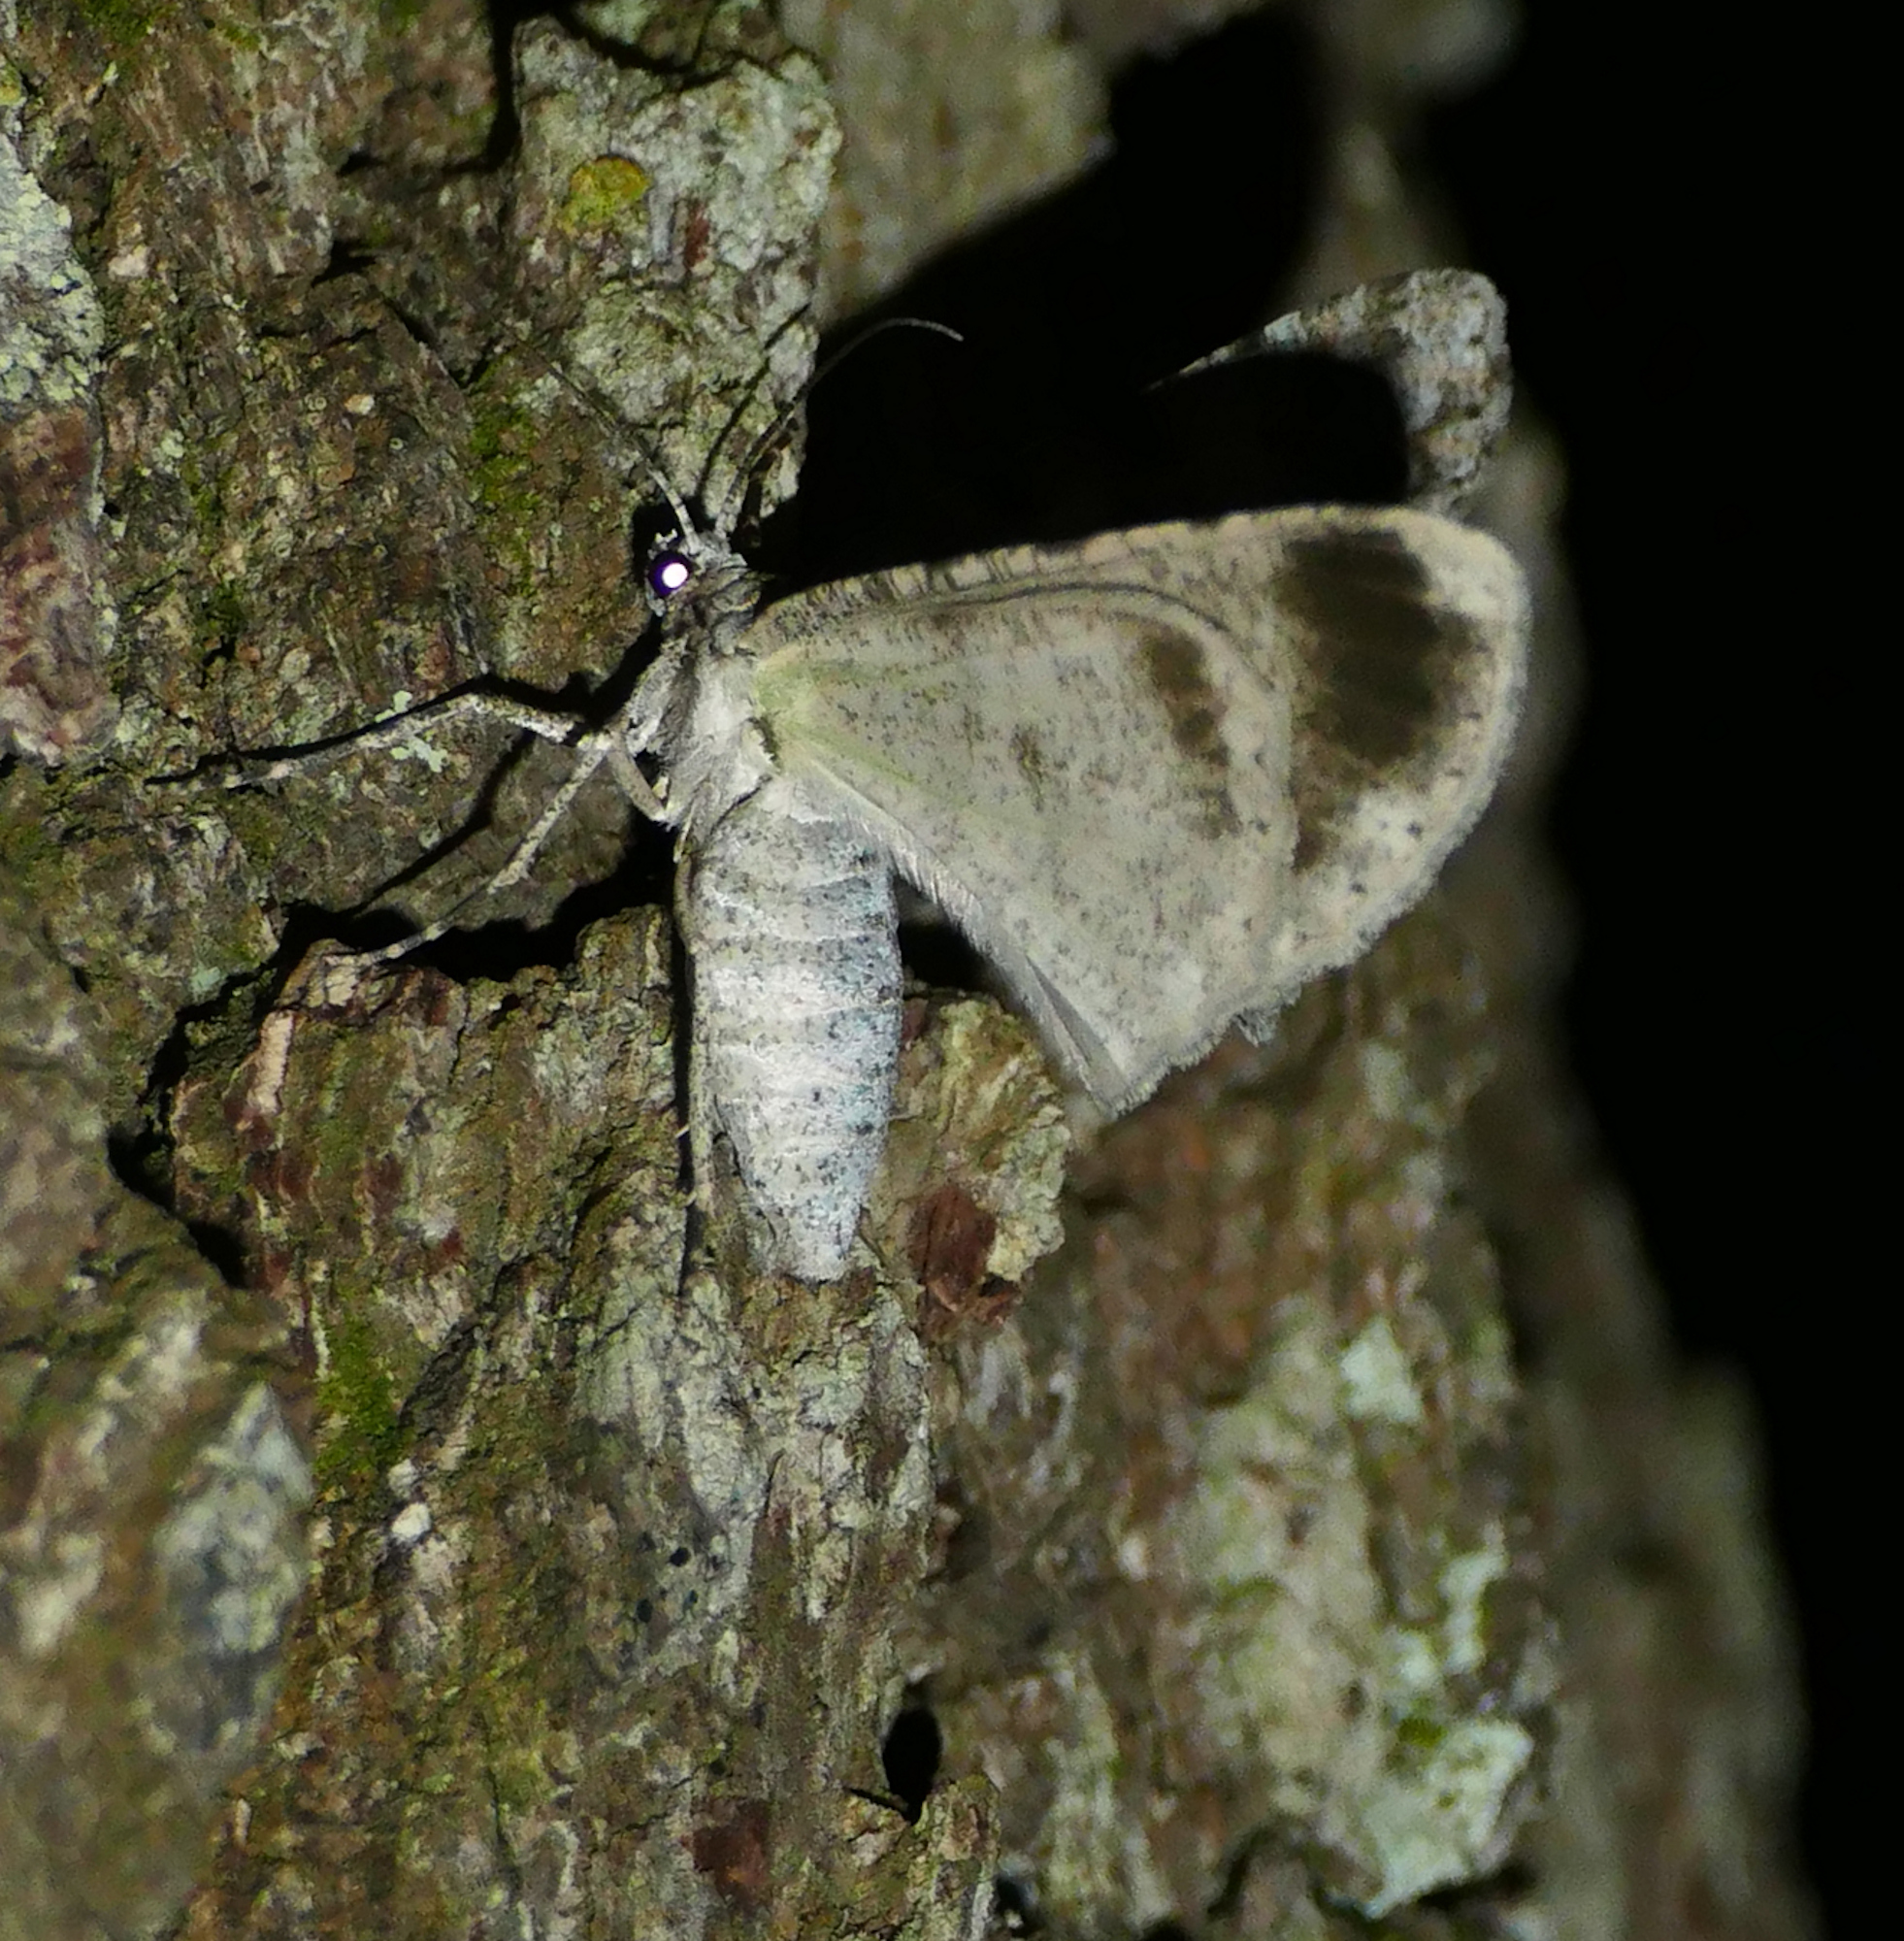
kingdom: Animalia
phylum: Arthropoda
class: Insecta
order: Lepidoptera
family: Geometridae
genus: Iridopsis
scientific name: Iridopsis defectaria
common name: Brown-shaded gray
